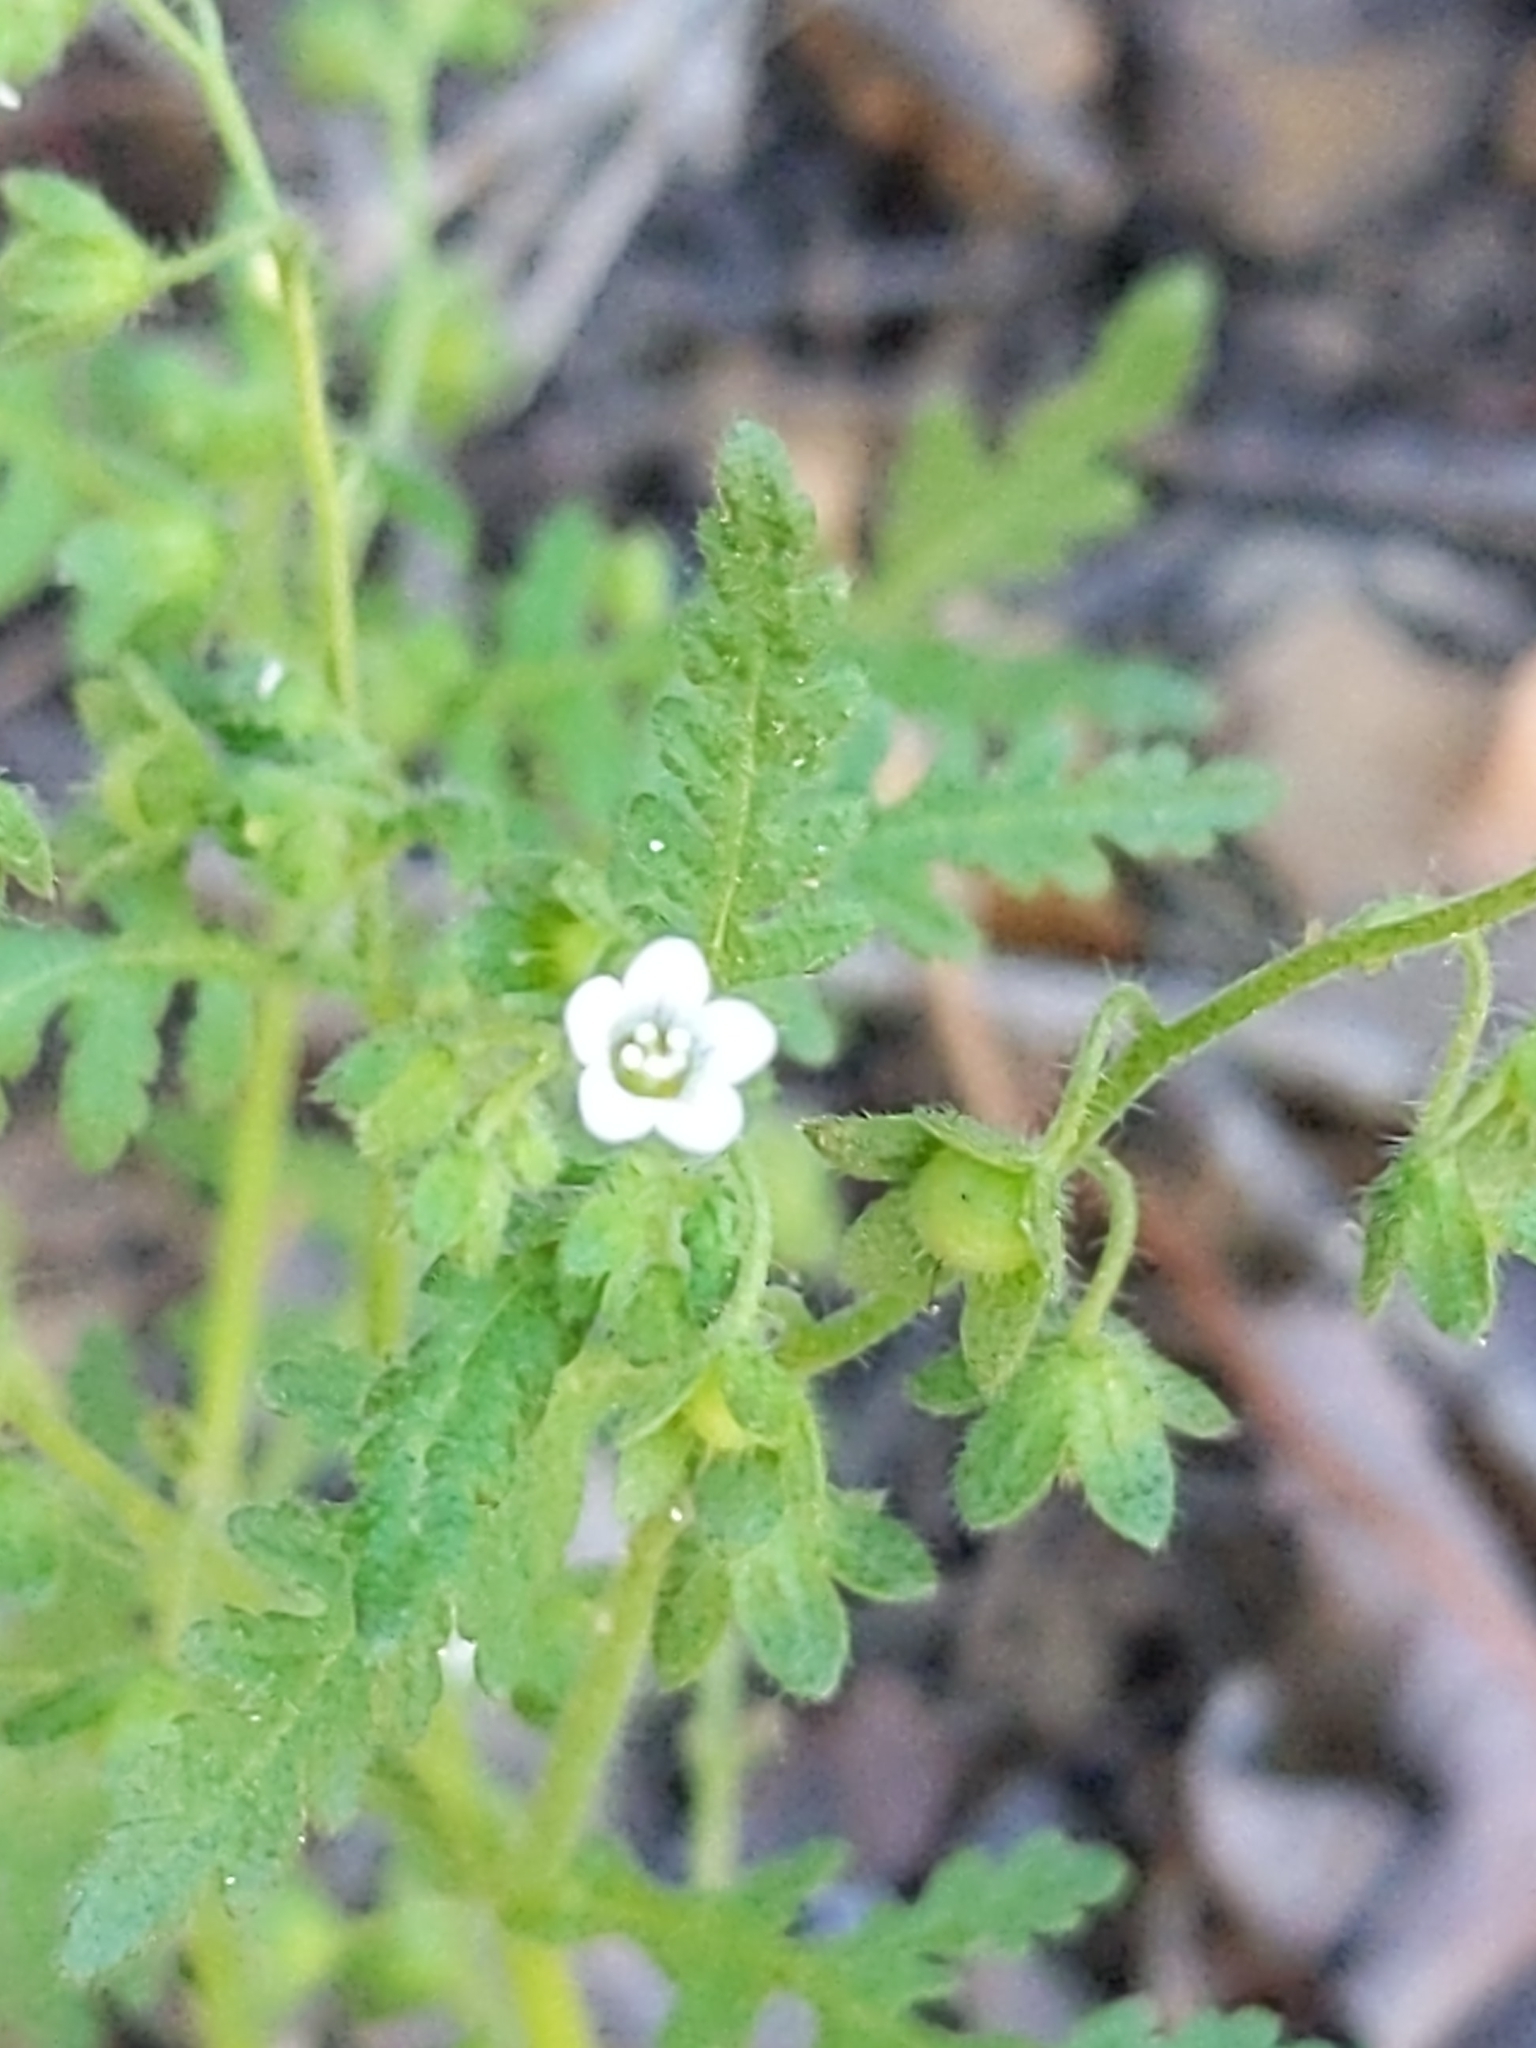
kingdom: Plantae
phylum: Tracheophyta
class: Magnoliopsida
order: Boraginales
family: Hydrophyllaceae
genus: Eucrypta
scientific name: Eucrypta chrysanthemifolia
